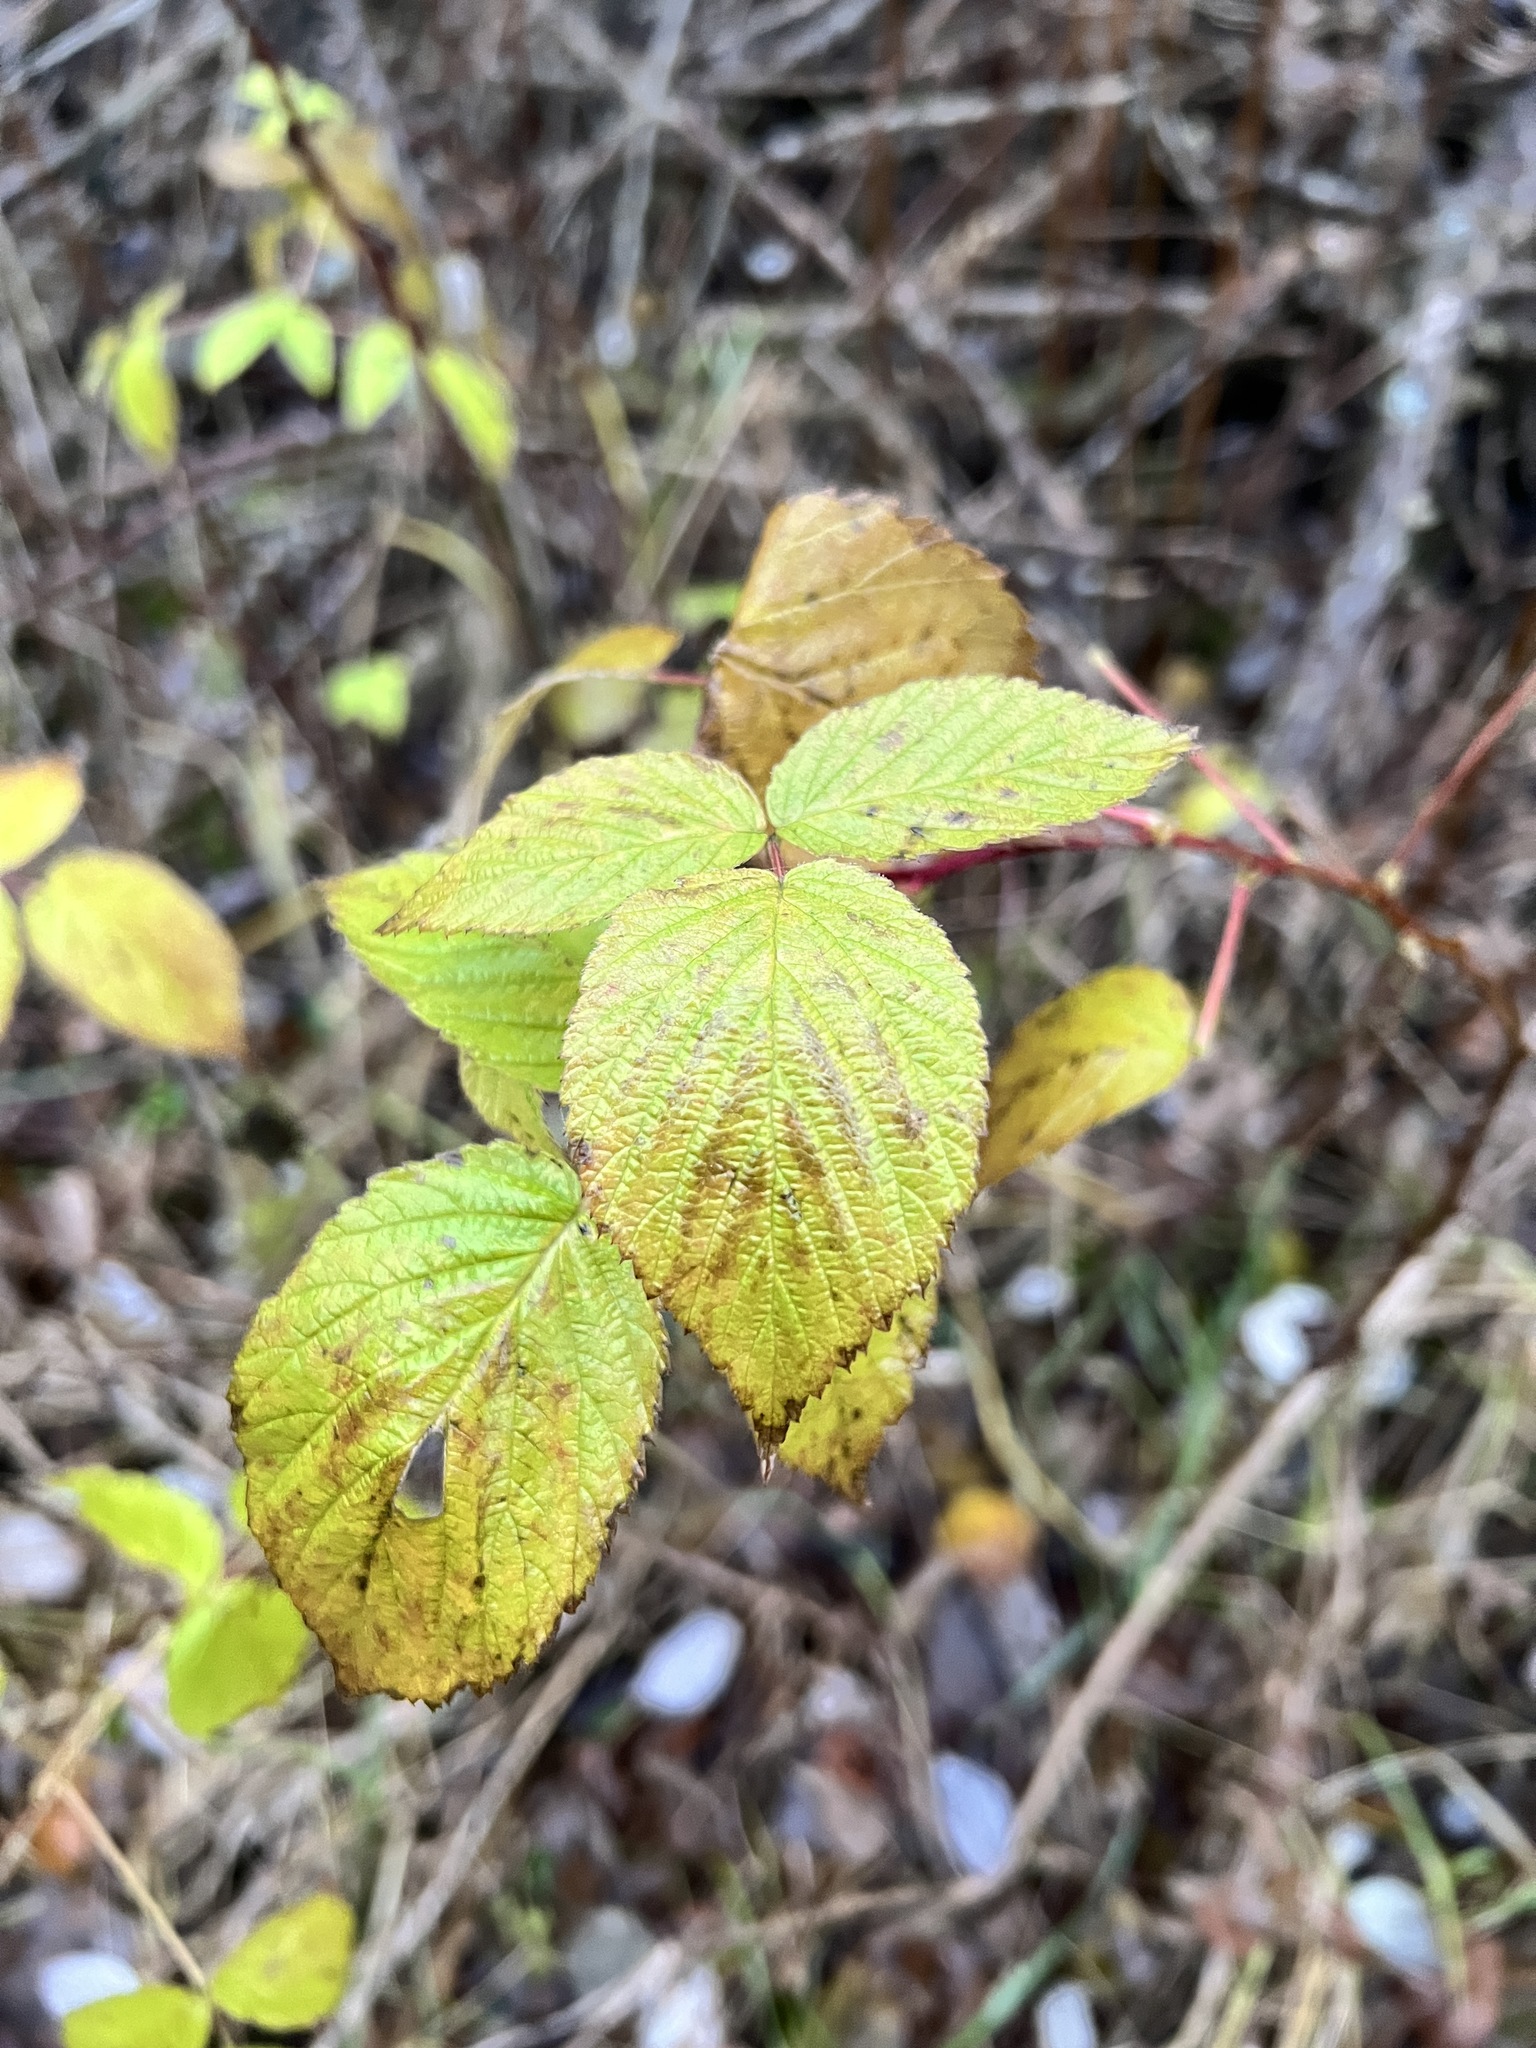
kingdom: Plantae
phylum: Tracheophyta
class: Magnoliopsida
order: Rosales
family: Rosaceae
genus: Rubus
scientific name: Rubus idaeus
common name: Raspberry
